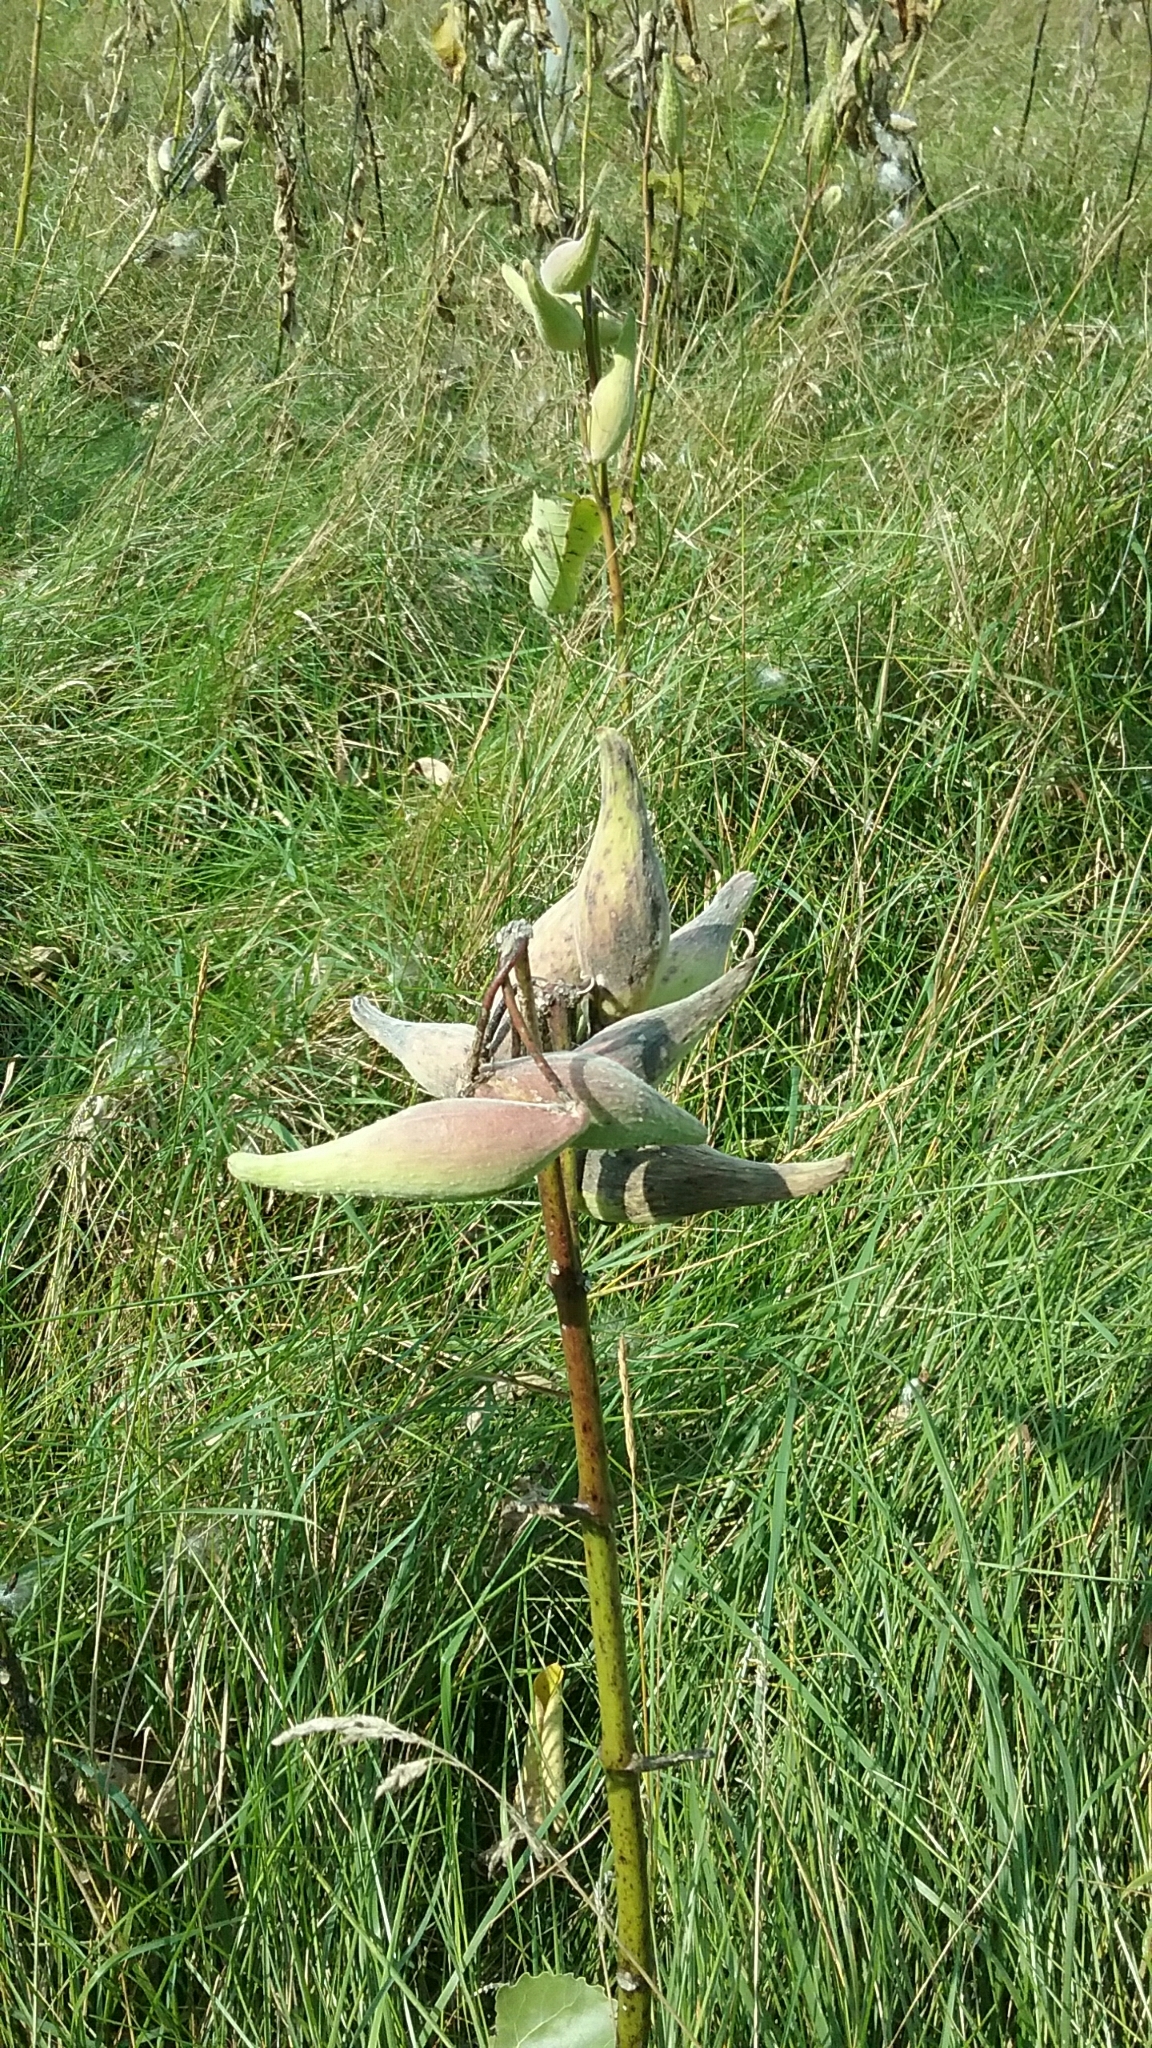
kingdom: Plantae
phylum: Tracheophyta
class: Magnoliopsida
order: Gentianales
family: Apocynaceae
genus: Asclepias
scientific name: Asclepias syriaca
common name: Common milkweed
